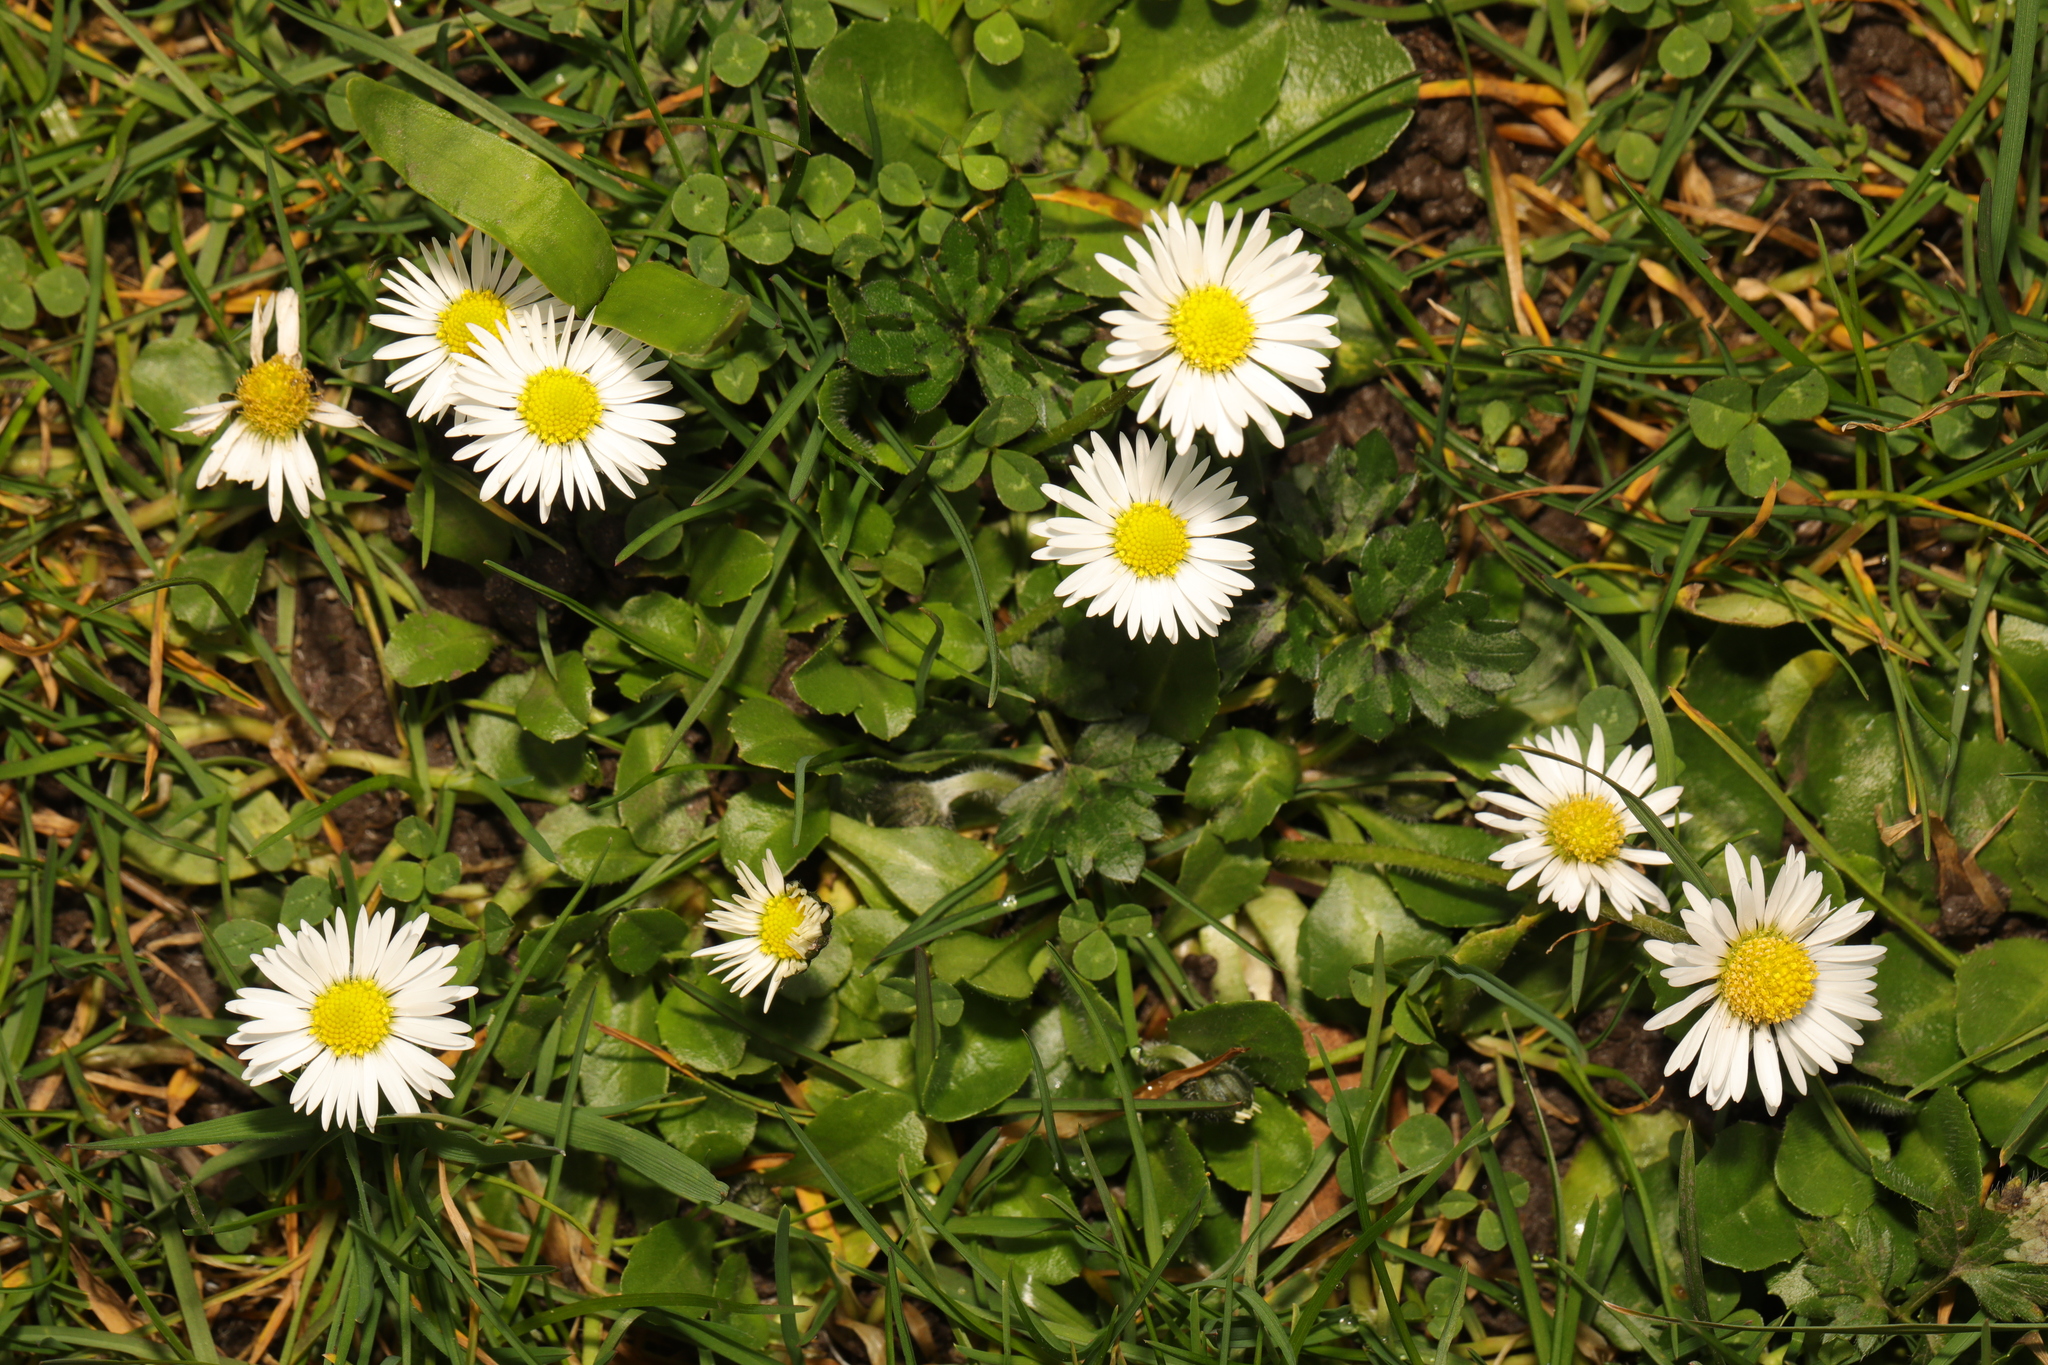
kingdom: Plantae
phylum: Tracheophyta
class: Magnoliopsida
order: Asterales
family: Asteraceae
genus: Bellis
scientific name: Bellis perennis
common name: Lawndaisy
